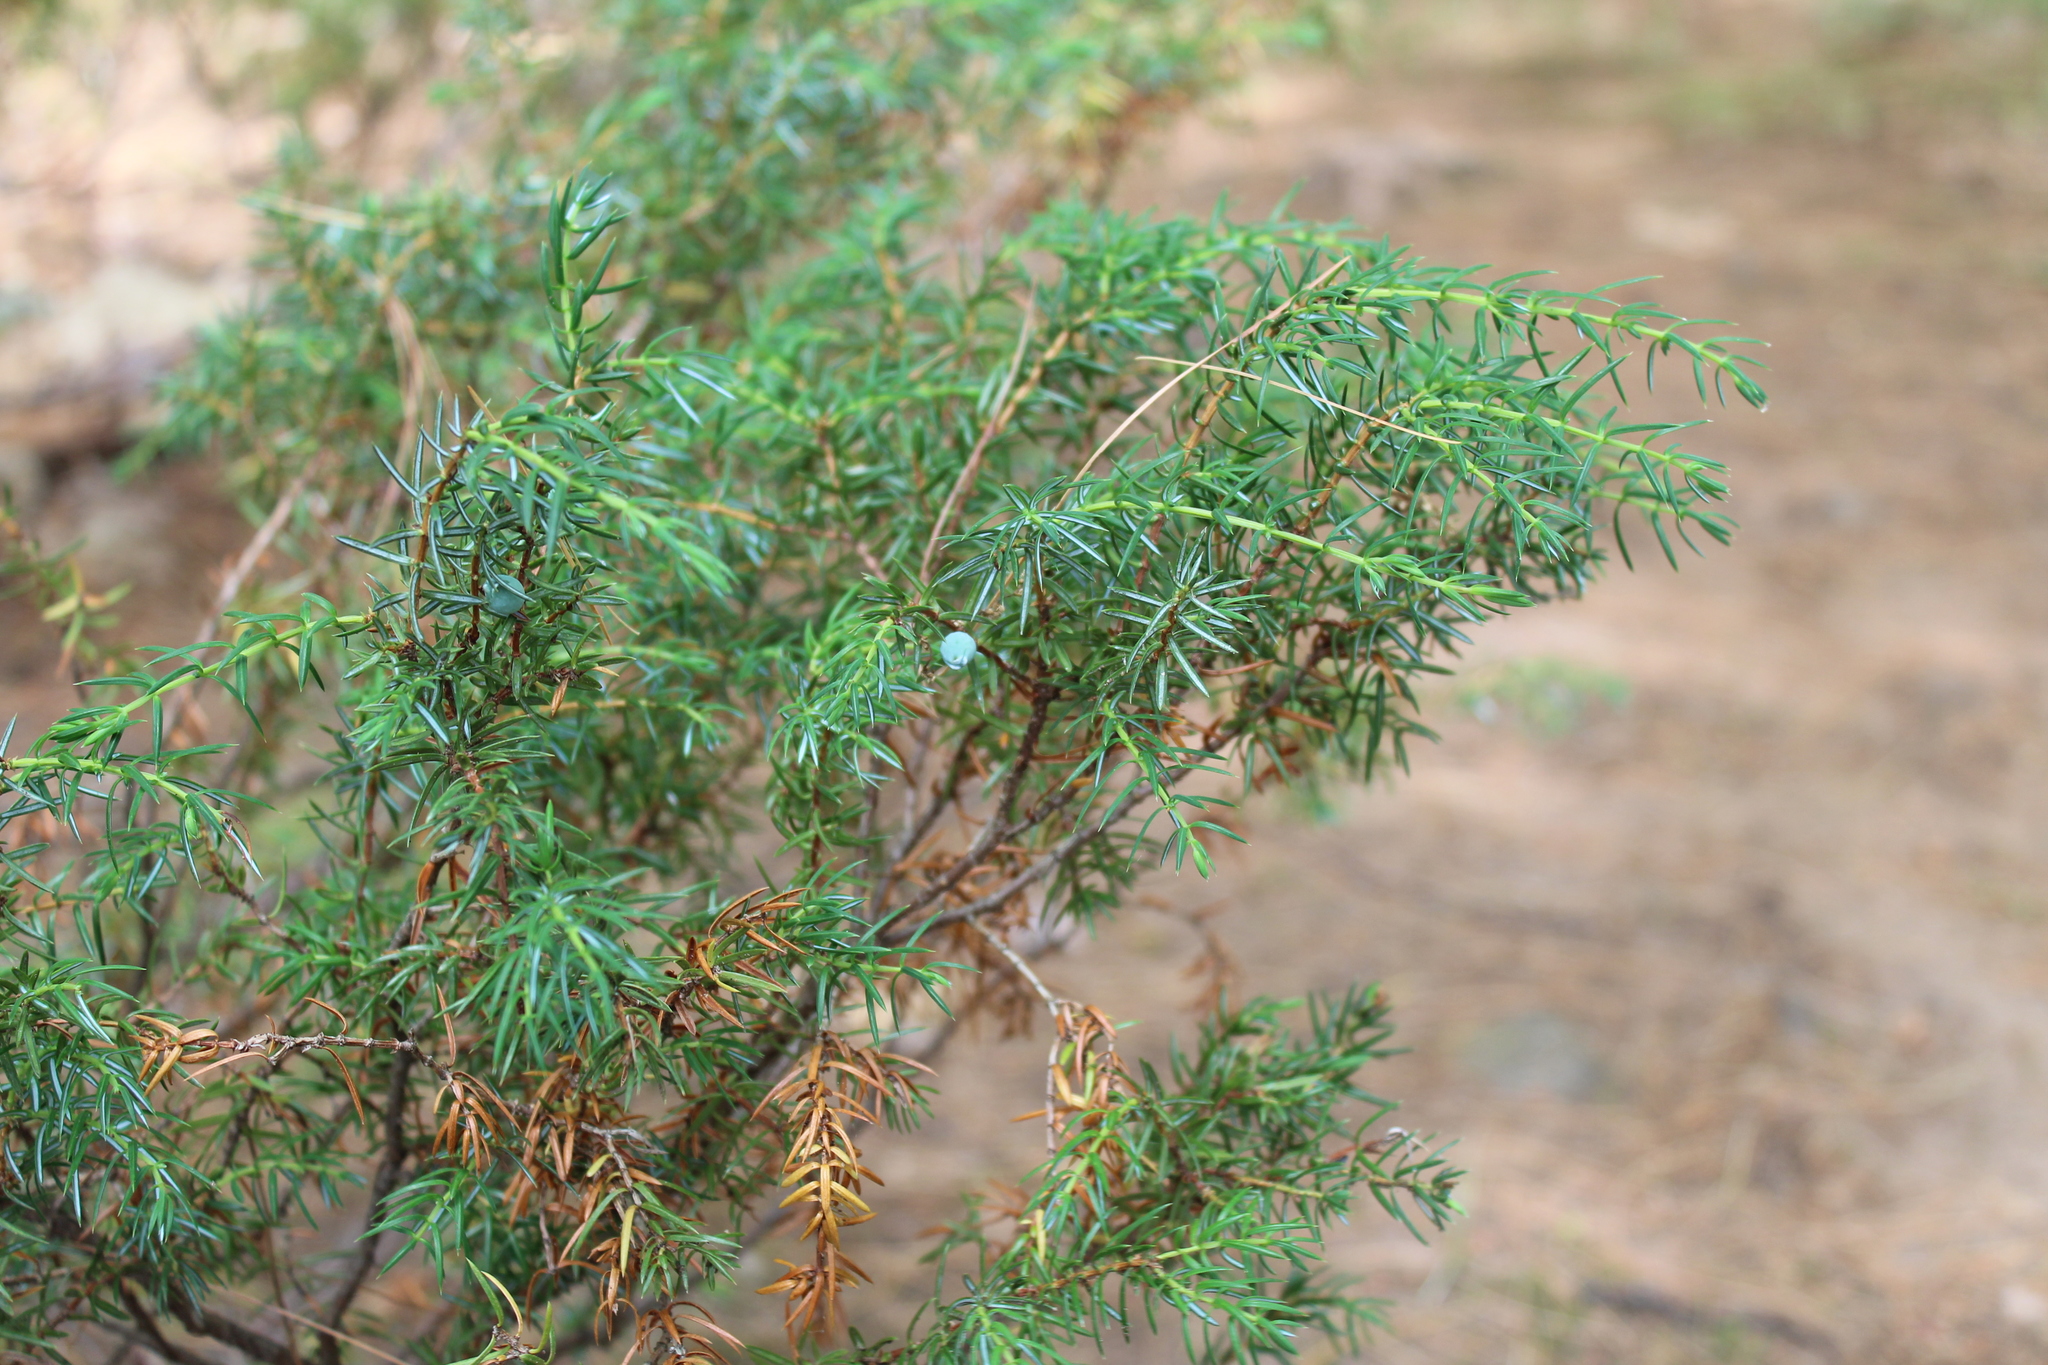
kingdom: Plantae
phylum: Tracheophyta
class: Pinopsida
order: Pinales
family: Cupressaceae
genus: Juniperus
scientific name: Juniperus communis
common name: Common juniper
